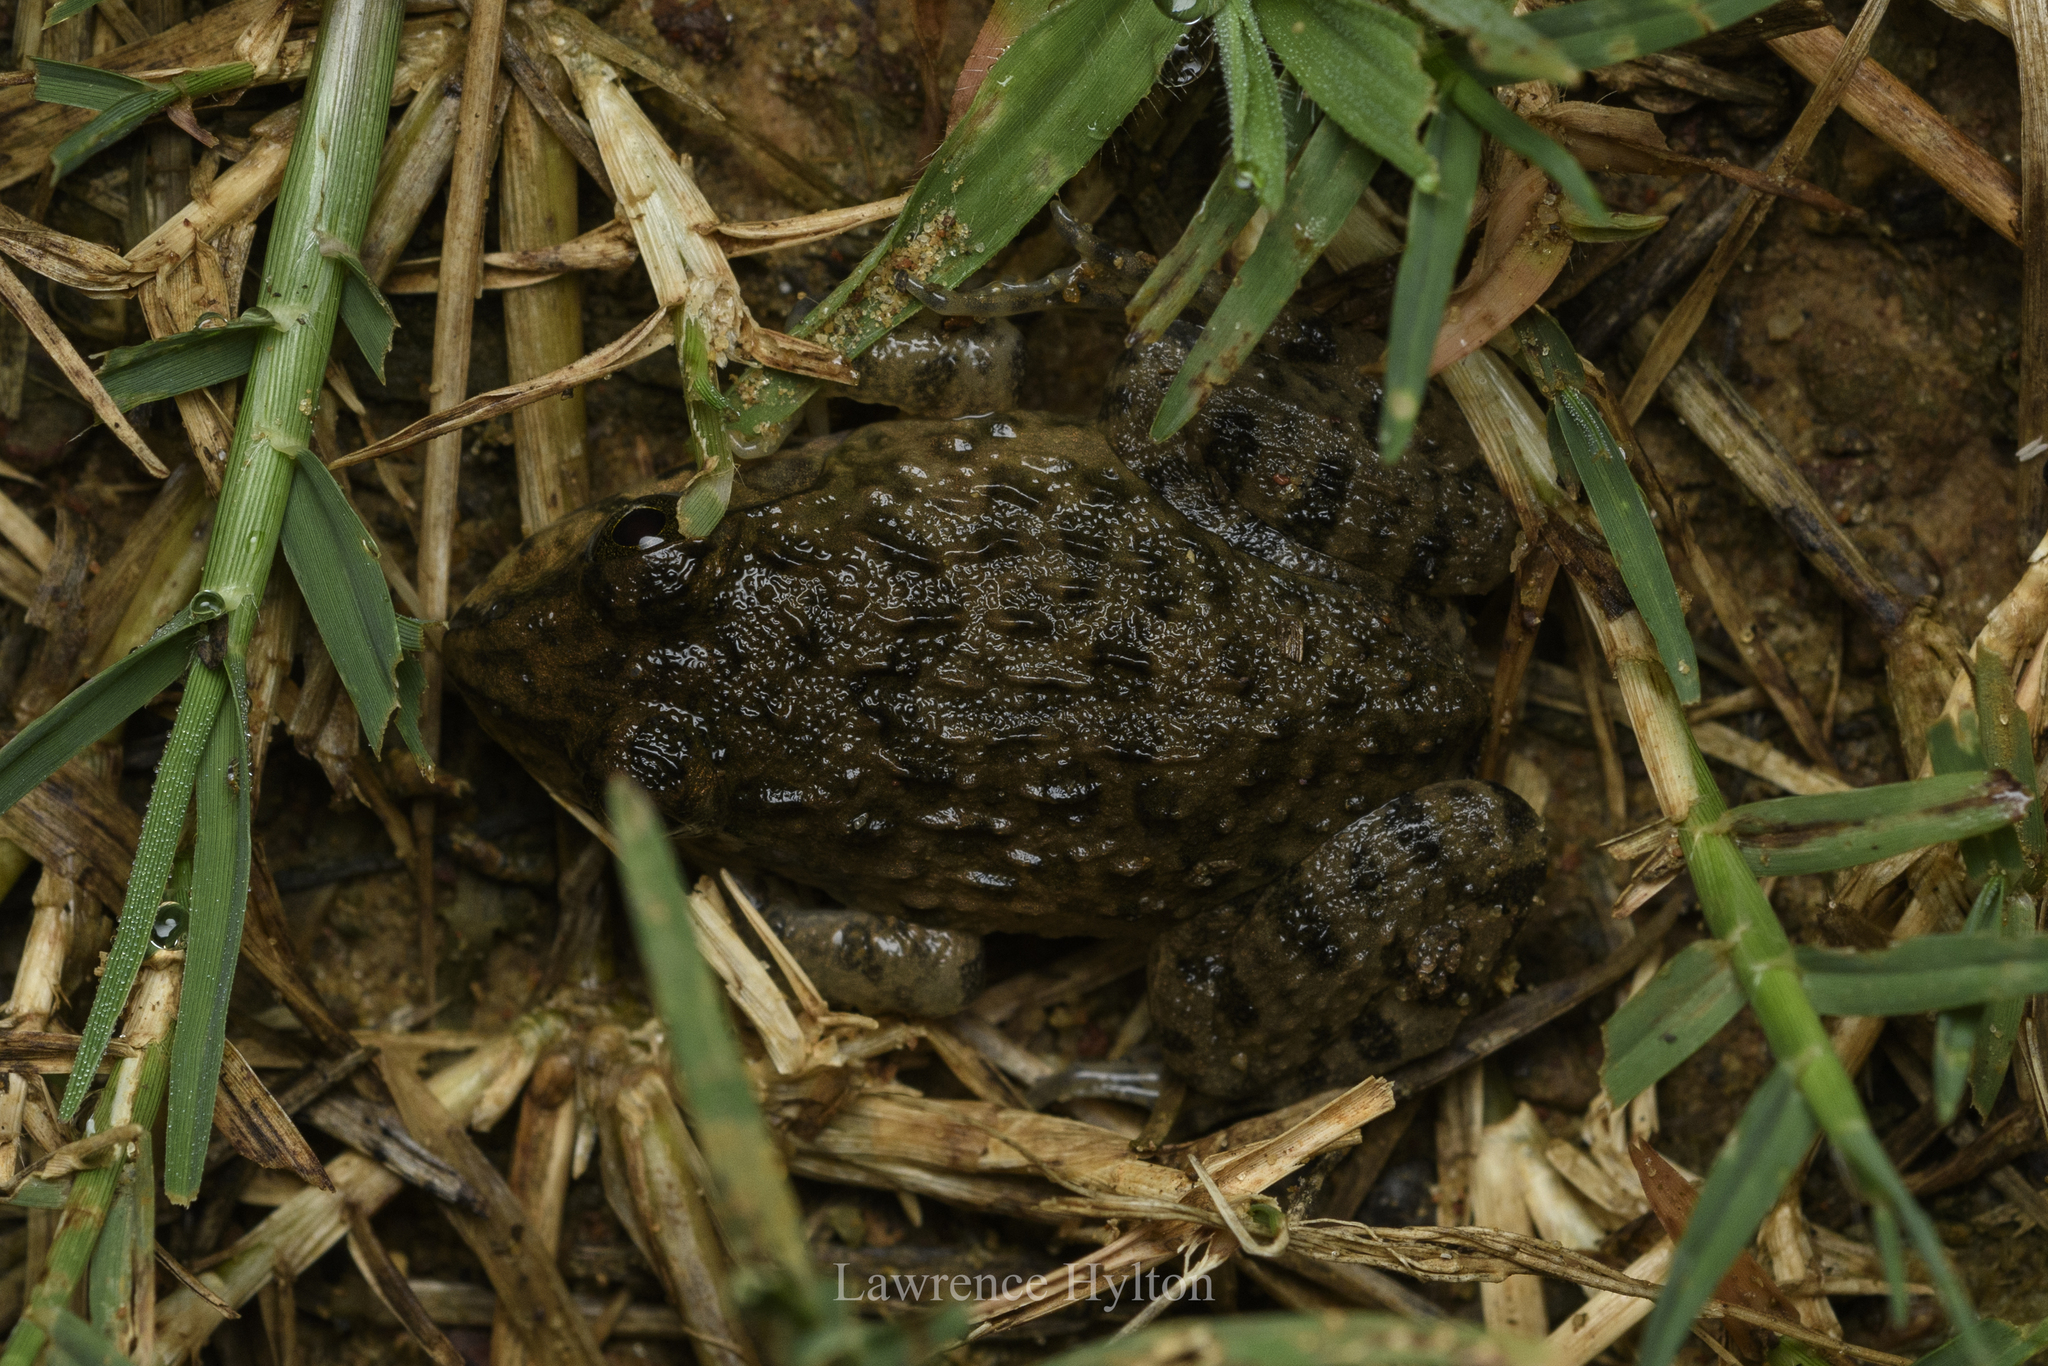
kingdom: Animalia
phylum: Chordata
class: Amphibia
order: Anura
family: Dicroglossidae
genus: Hoplobatrachus
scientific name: Hoplobatrachus rugulosus
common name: Chinese edible frog
